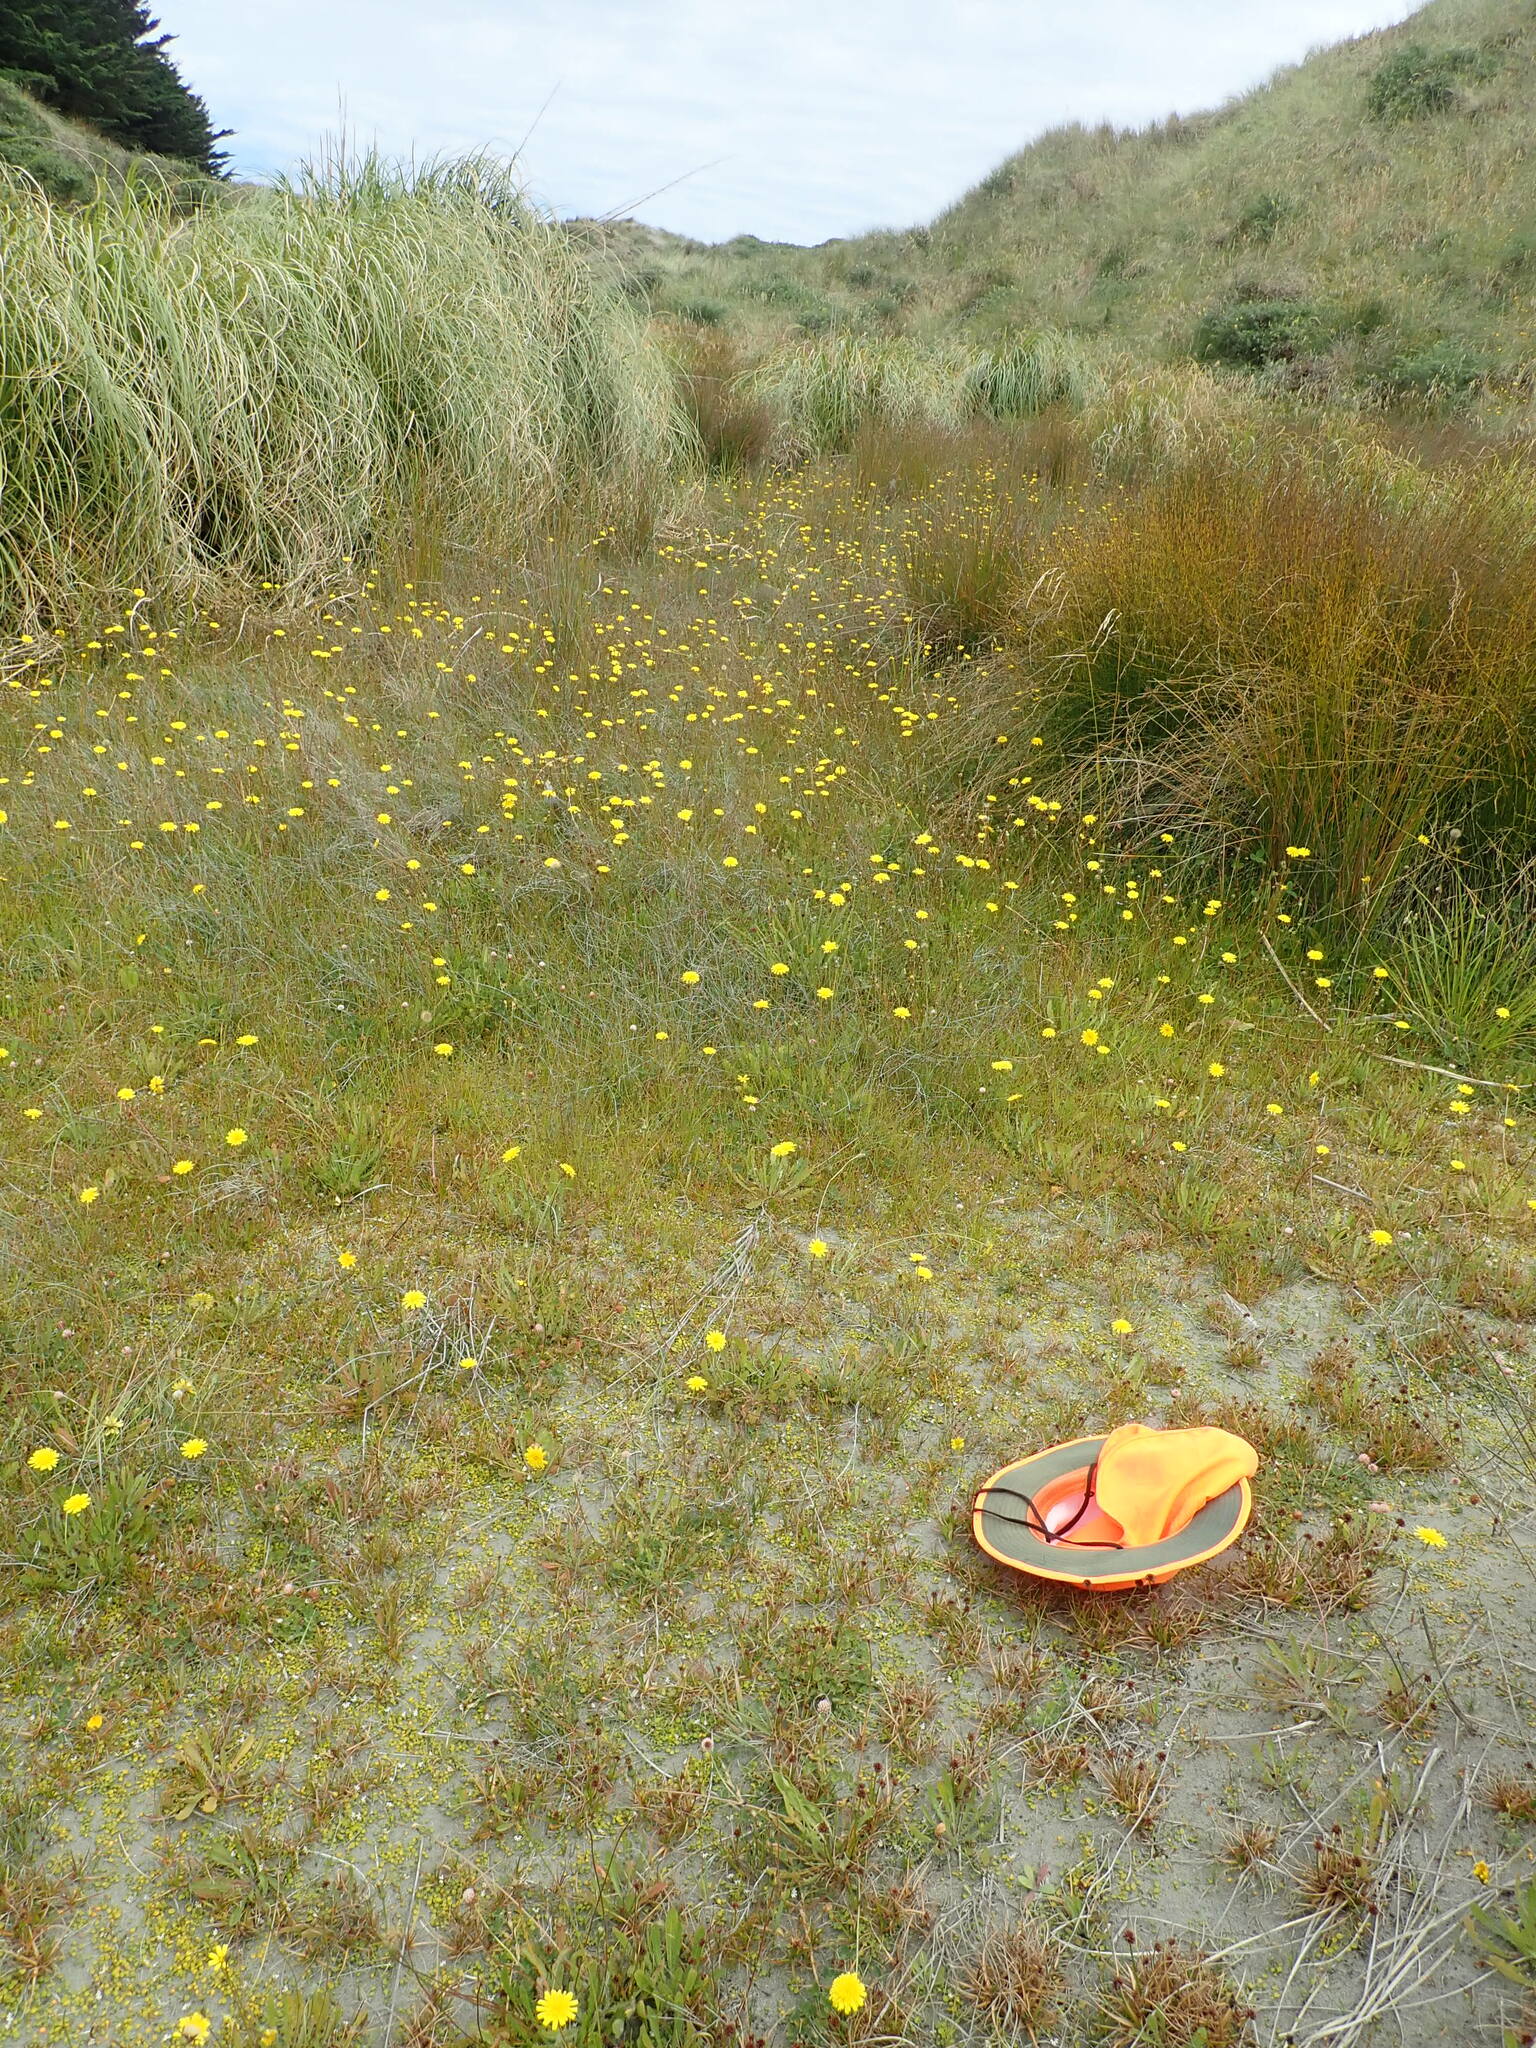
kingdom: Plantae
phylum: Tracheophyta
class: Magnoliopsida
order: Fabales
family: Fabaceae
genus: Trifolium
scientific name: Trifolium fragiferum
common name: Strawberry clover
